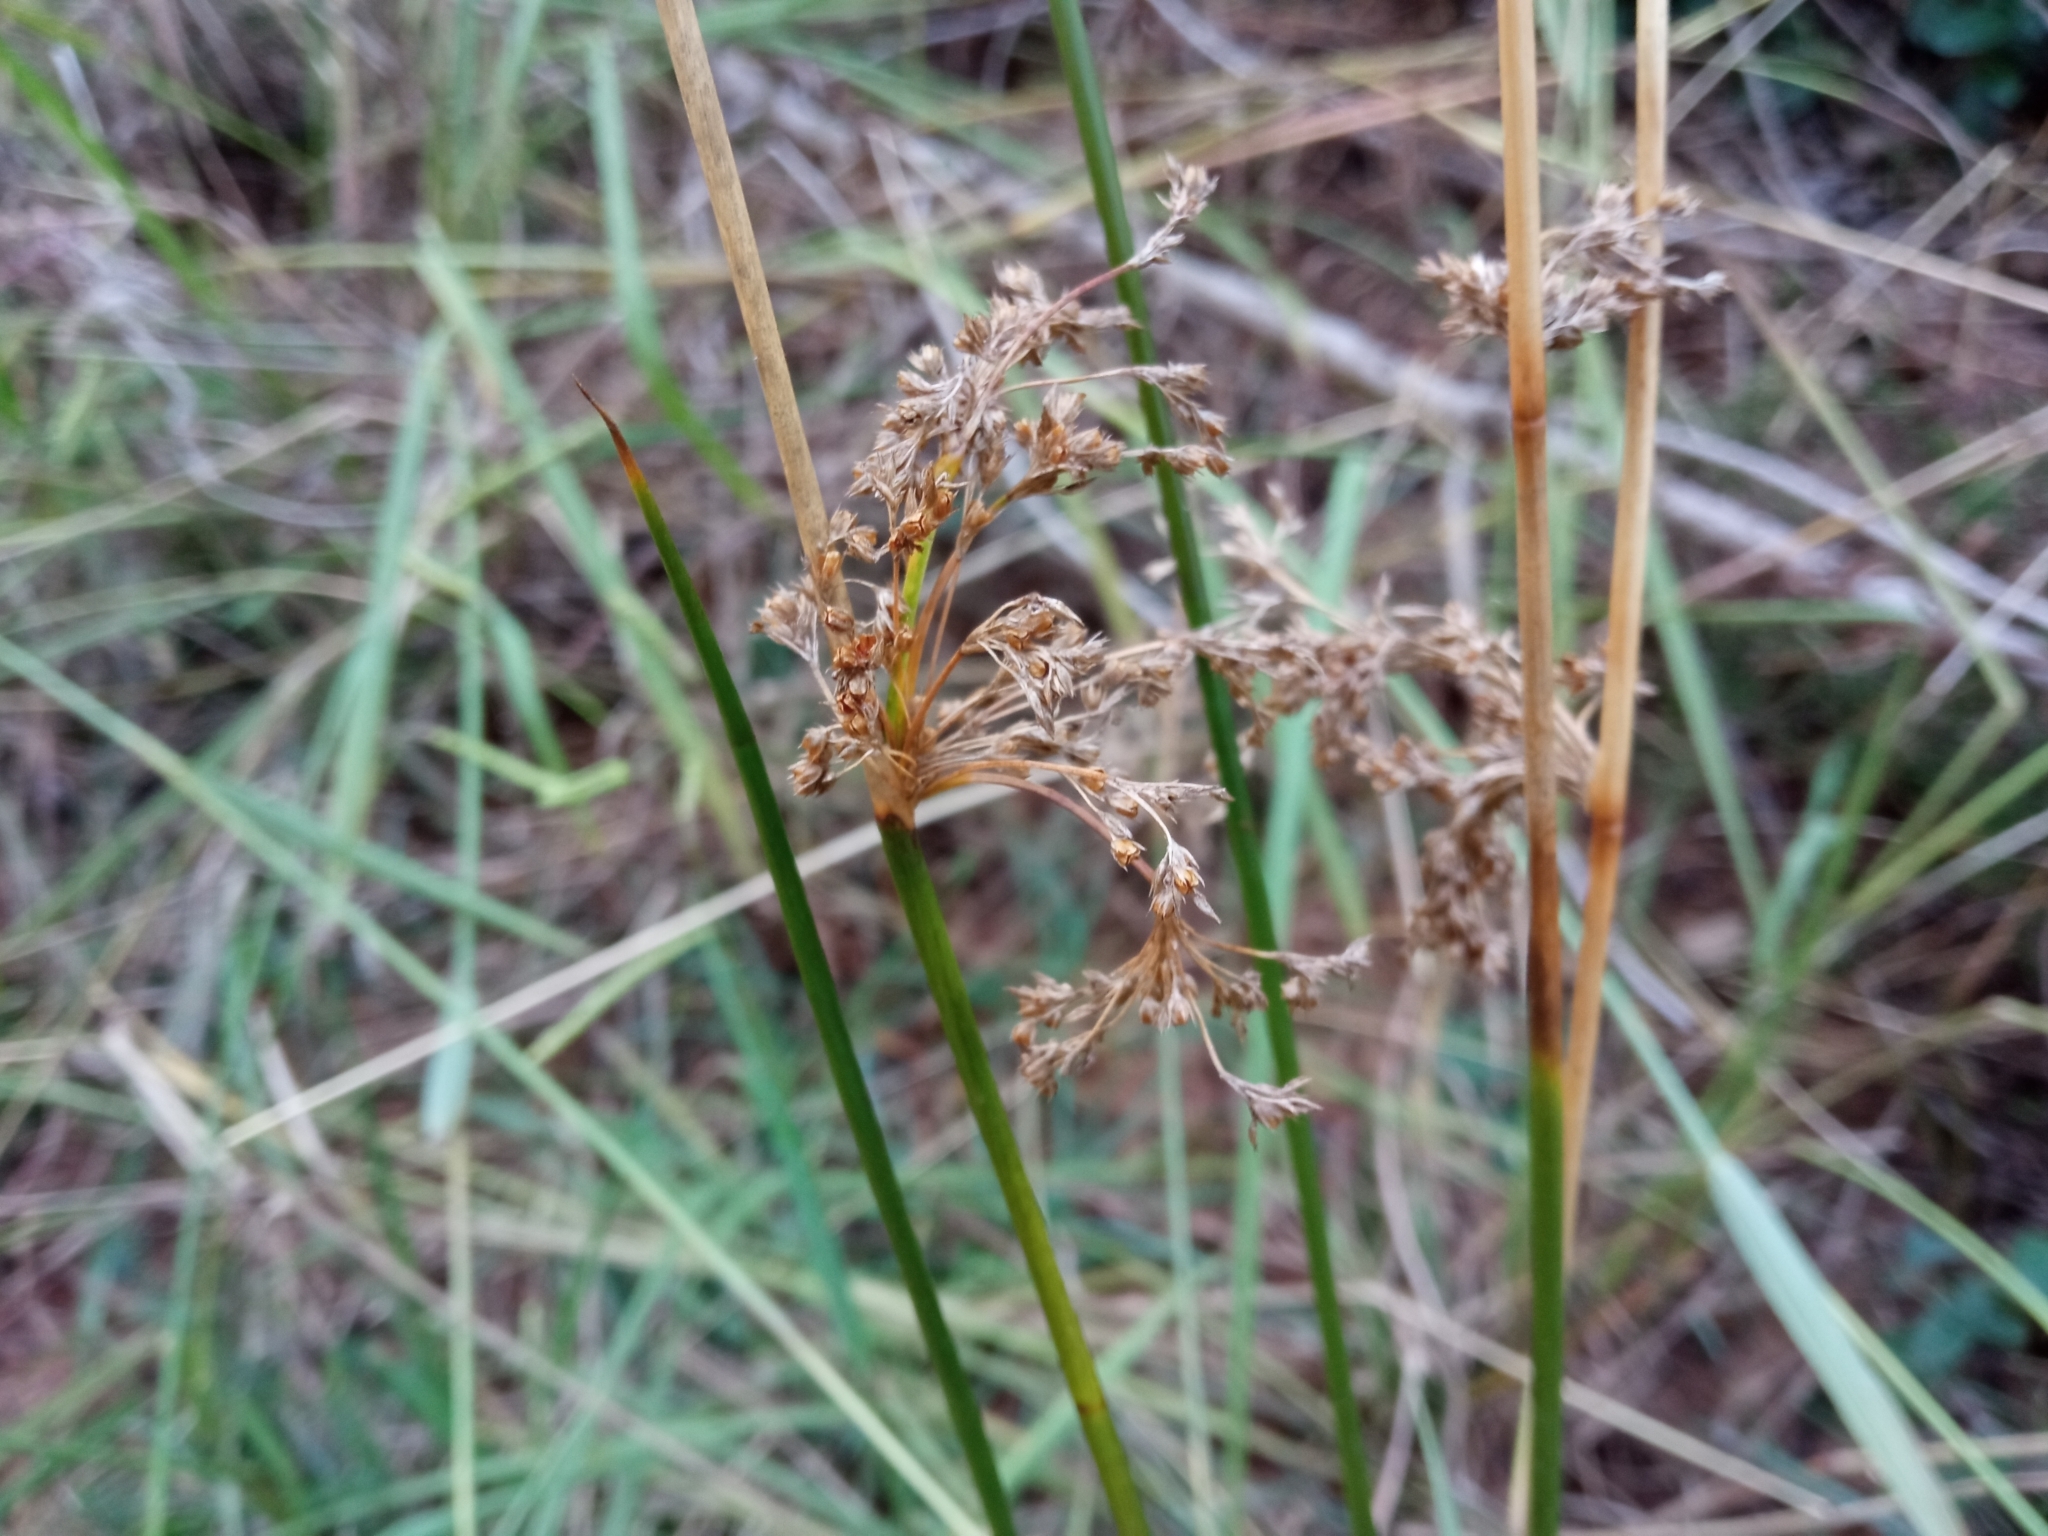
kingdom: Plantae
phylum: Tracheophyta
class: Liliopsida
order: Poales
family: Juncaceae
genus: Juncus
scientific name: Juncus effusus
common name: Soft rush
